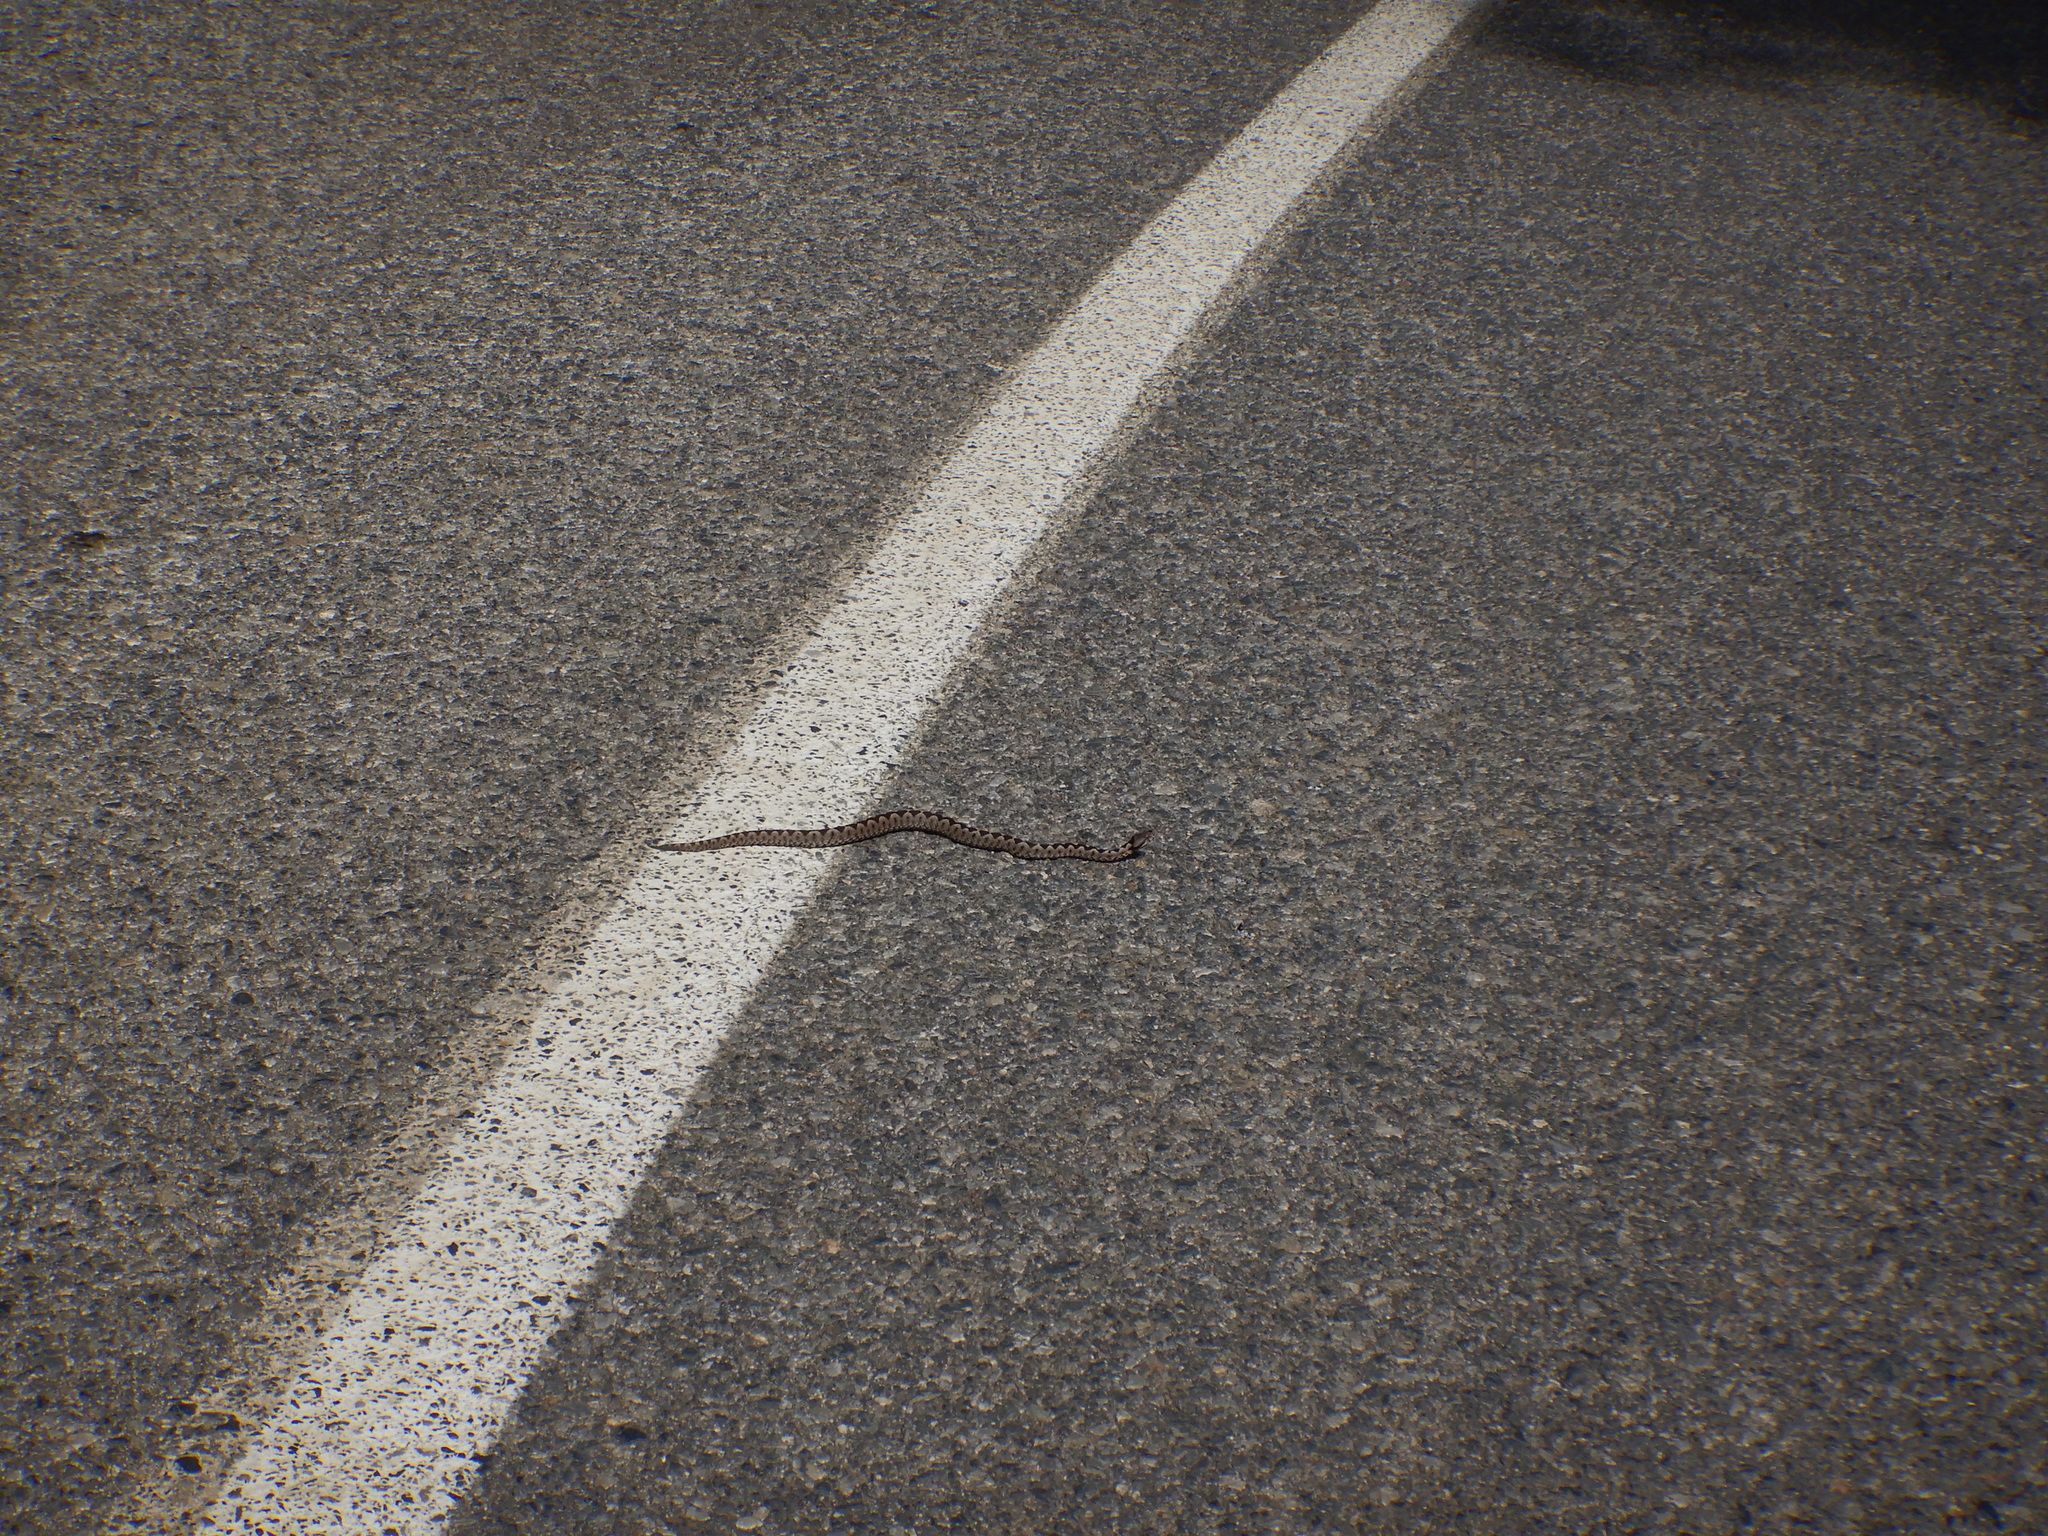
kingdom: Animalia
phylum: Chordata
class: Squamata
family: Viperidae
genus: Vipera
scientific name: Vipera ammodytes
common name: Sand viper
